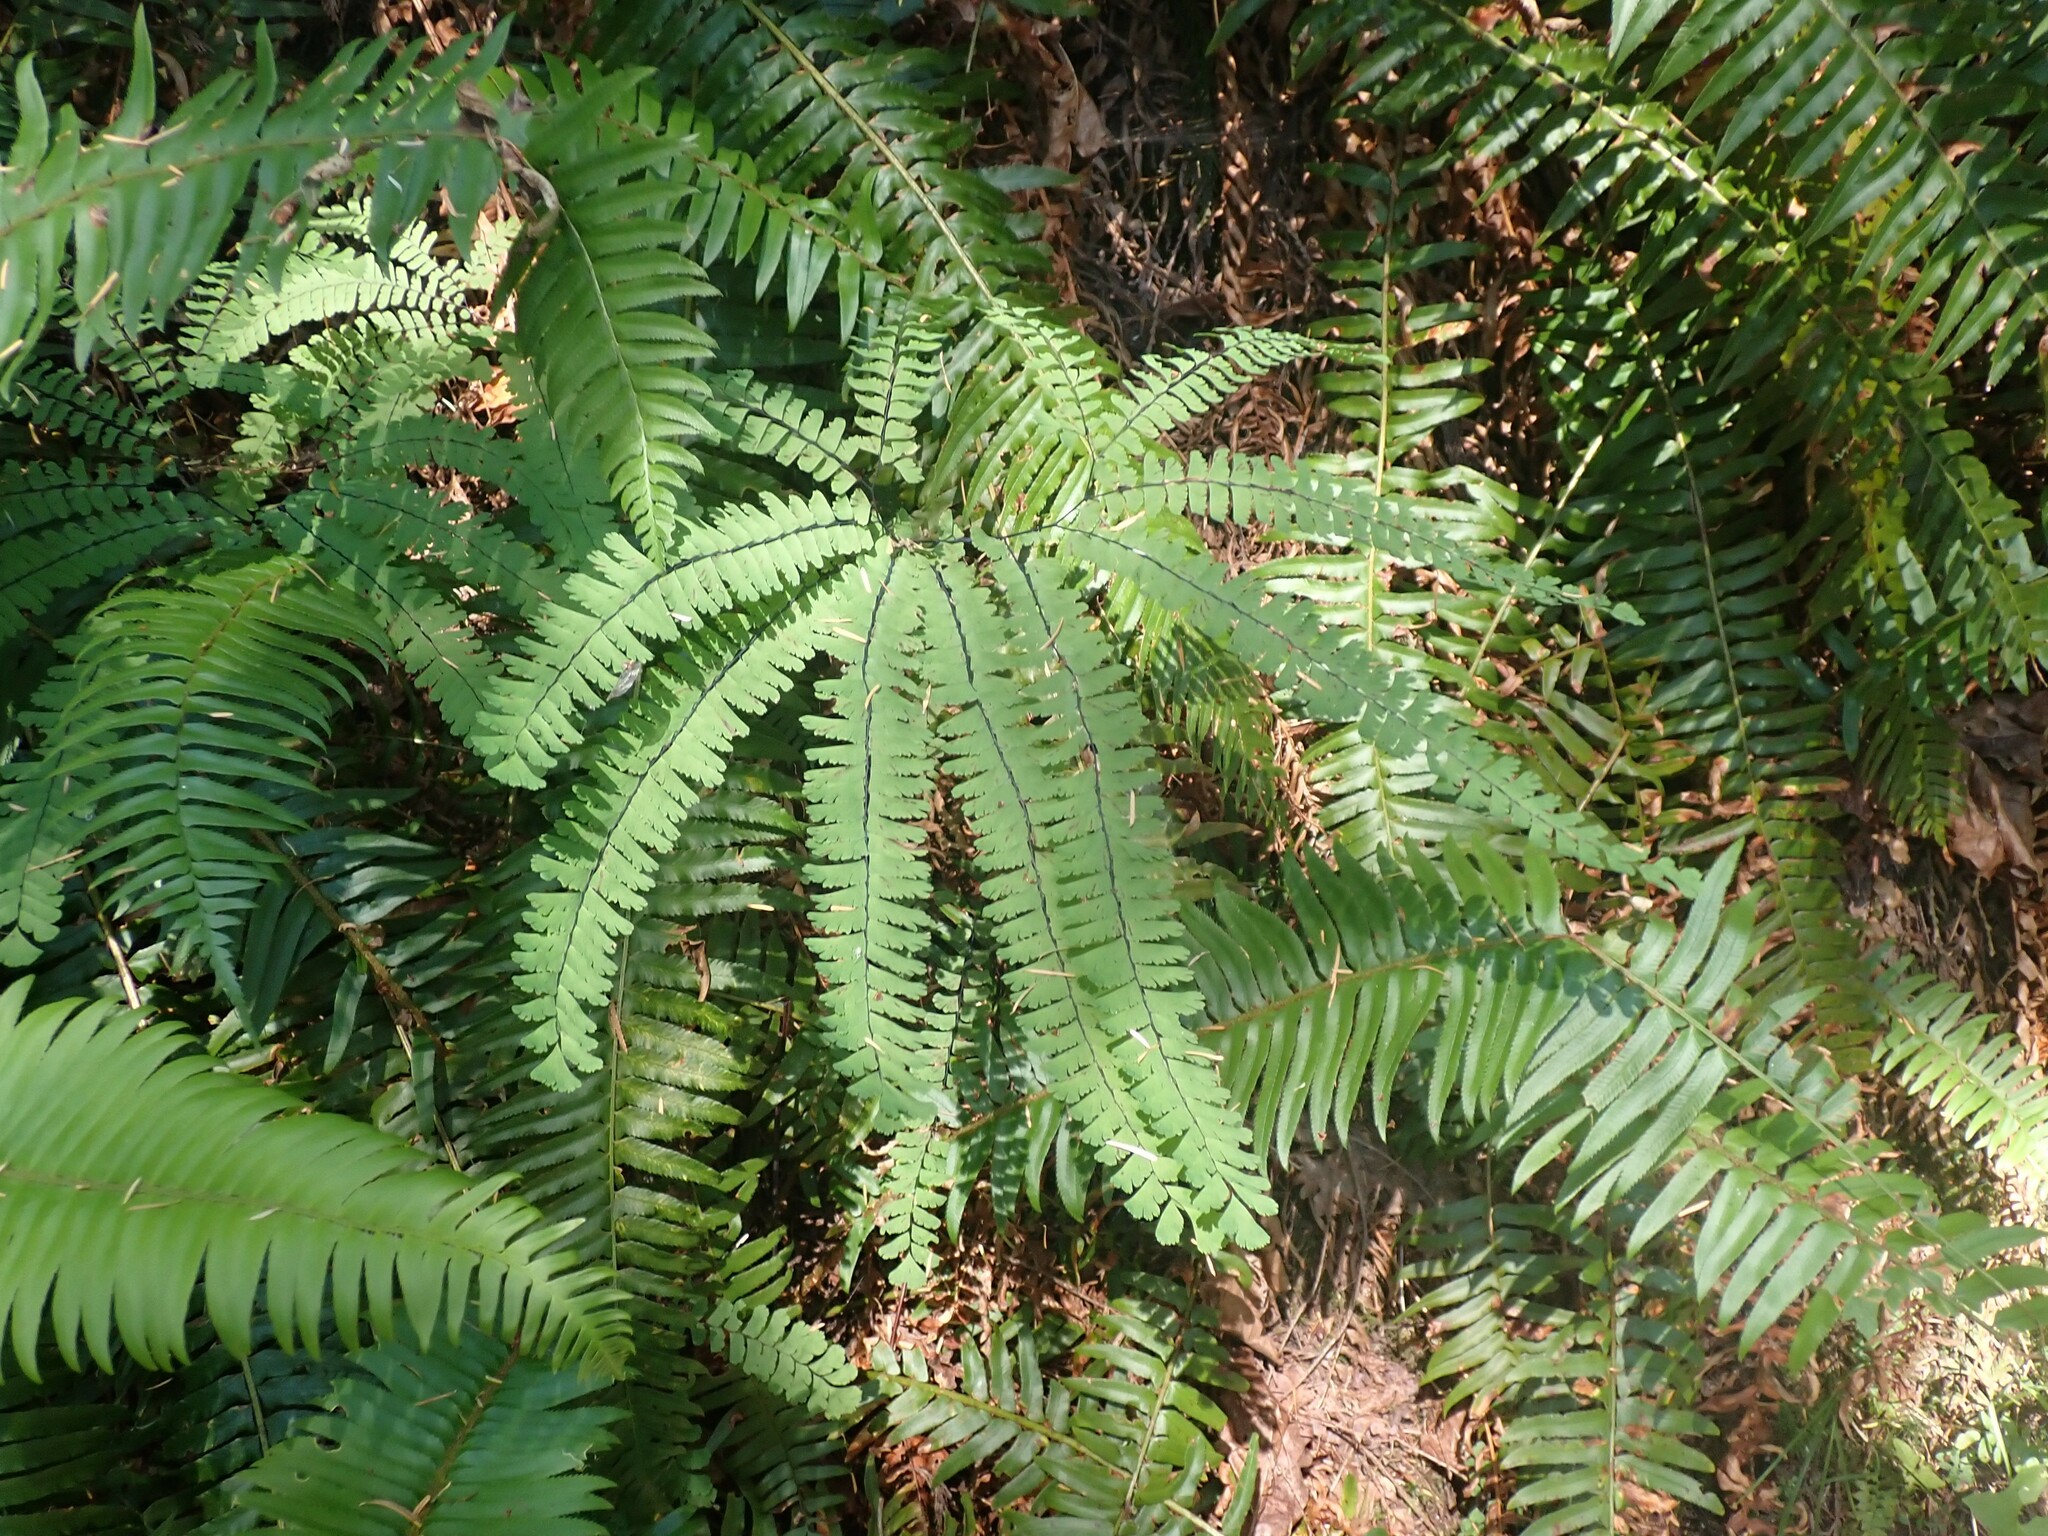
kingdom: Plantae
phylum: Tracheophyta
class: Polypodiopsida
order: Polypodiales
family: Pteridaceae
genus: Adiantum
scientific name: Adiantum aleuticum
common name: Aleutian maidenhair fern
